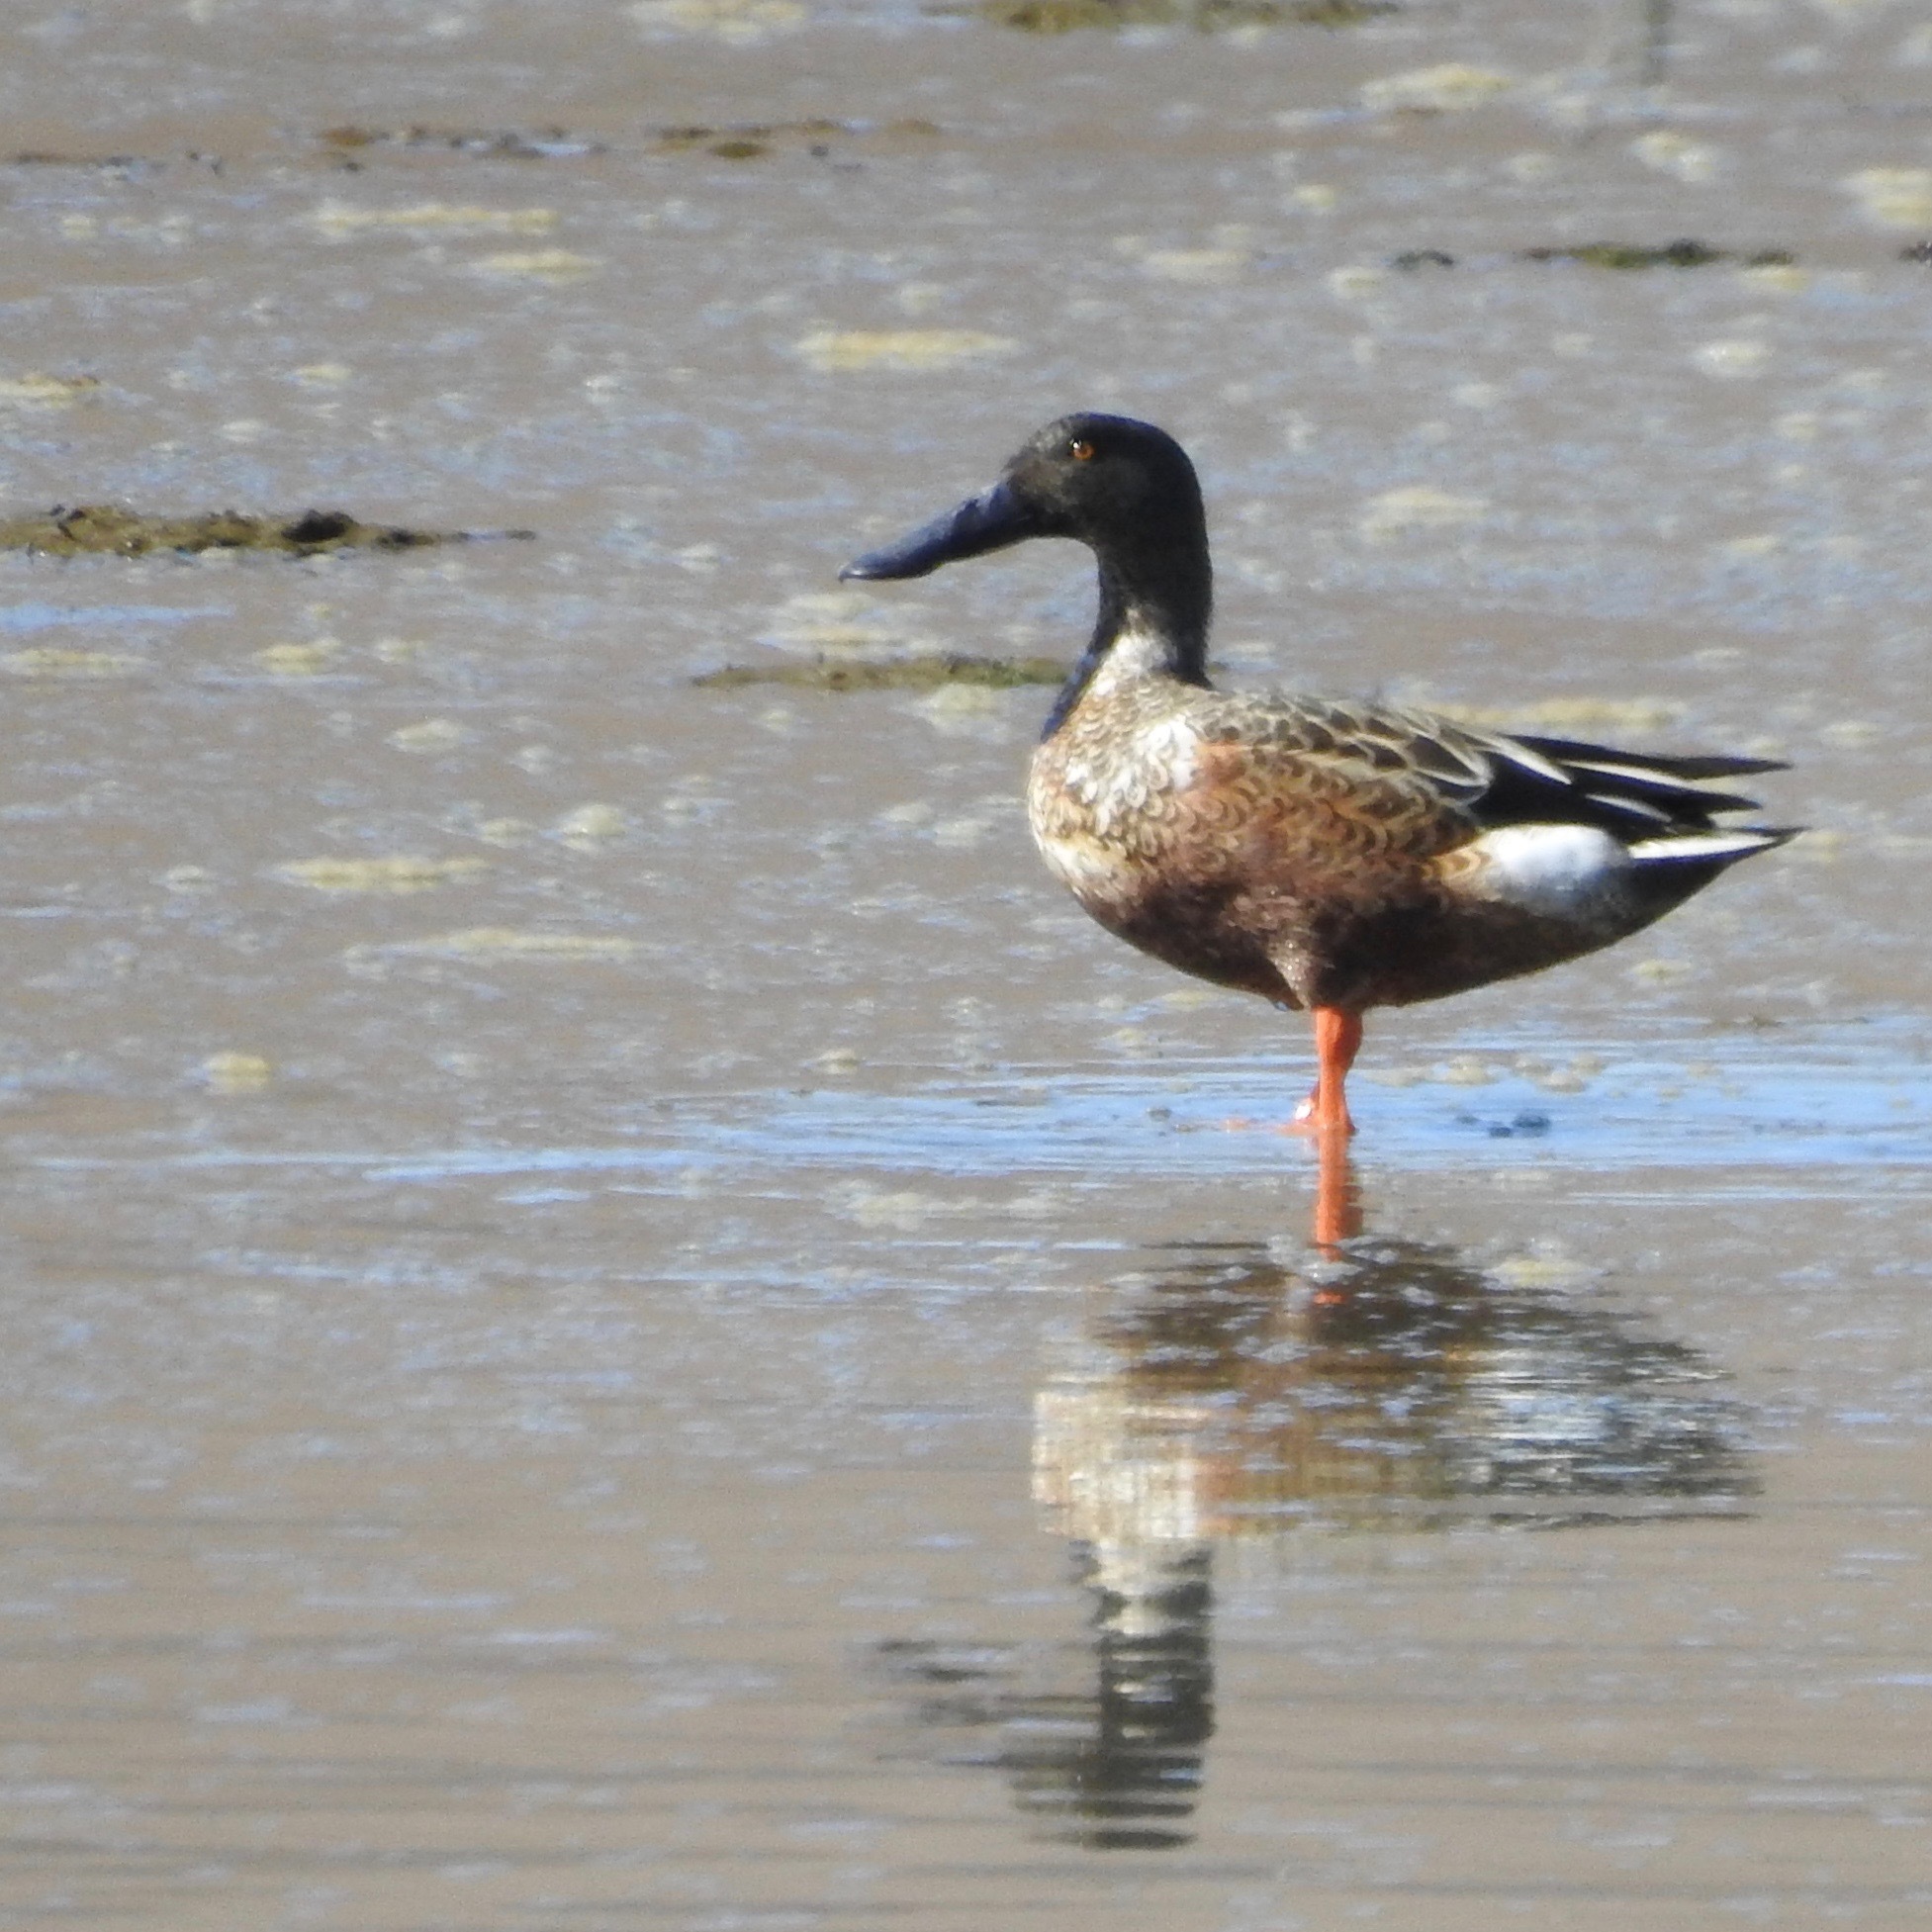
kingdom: Animalia
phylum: Chordata
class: Aves
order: Anseriformes
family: Anatidae
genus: Spatula
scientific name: Spatula clypeata
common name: Northern shoveler
